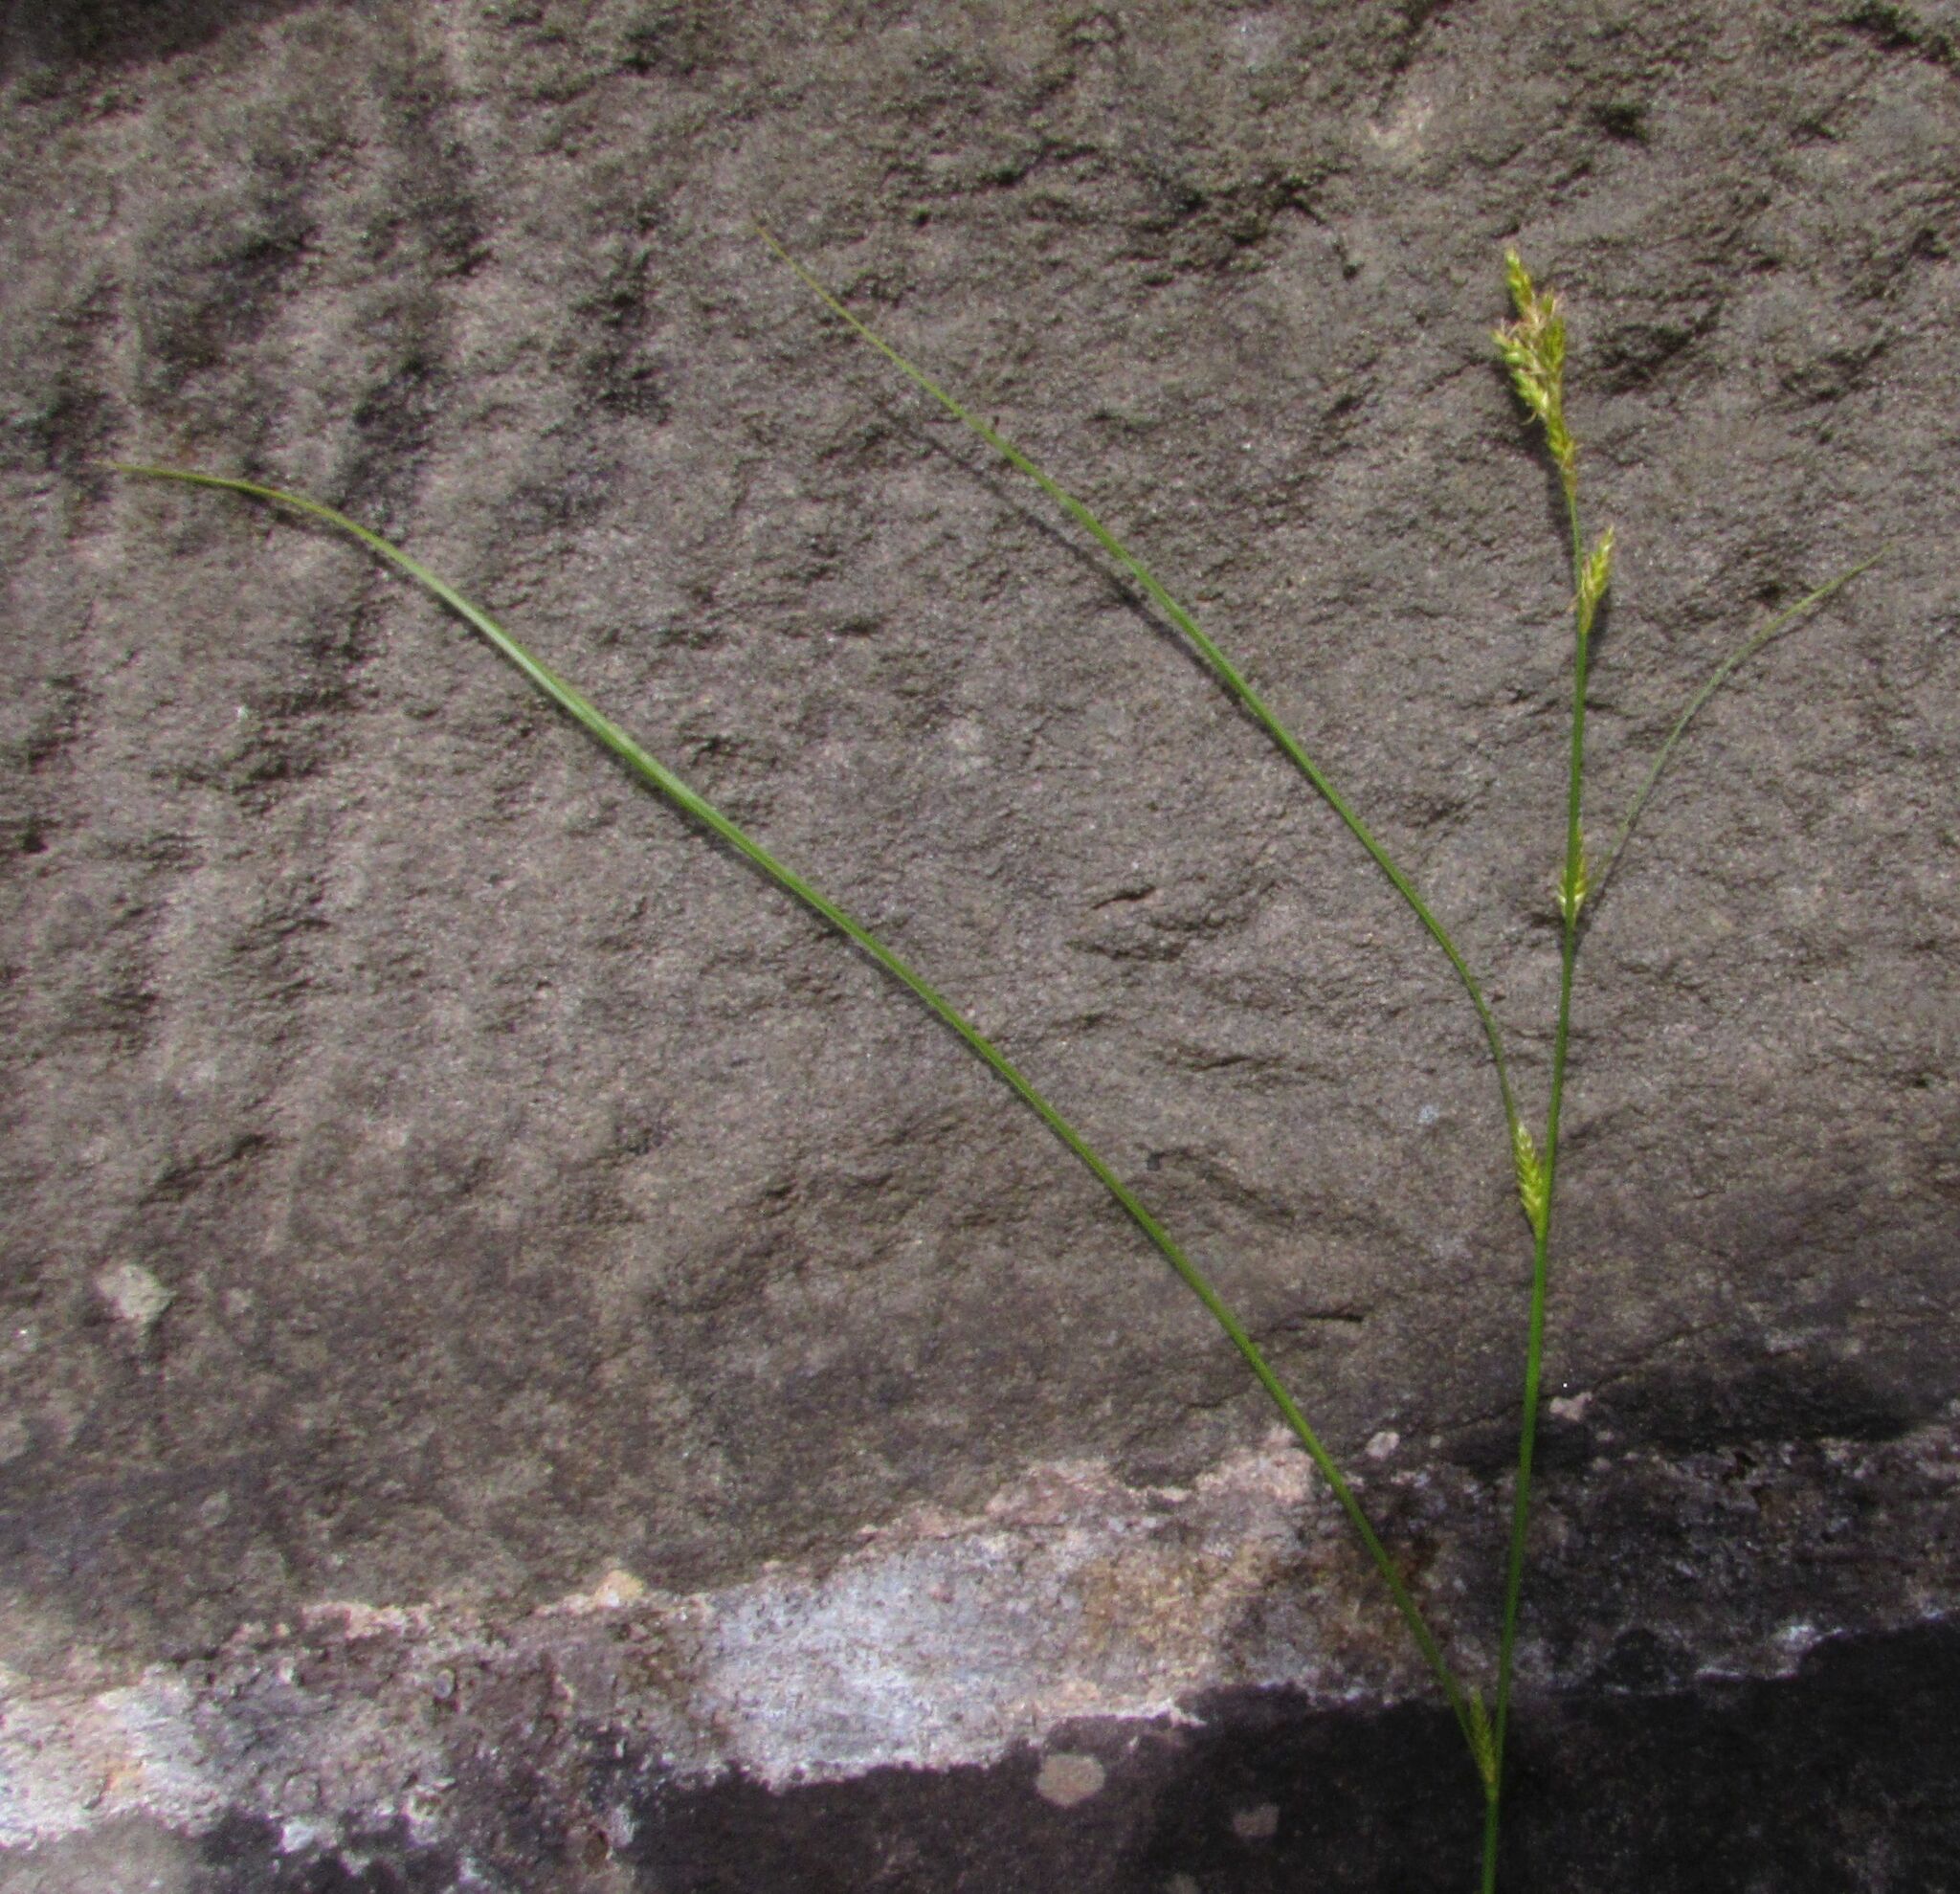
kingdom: Plantae
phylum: Tracheophyta
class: Liliopsida
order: Poales
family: Cyperaceae
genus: Carex
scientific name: Carex remota
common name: Remote sedge
